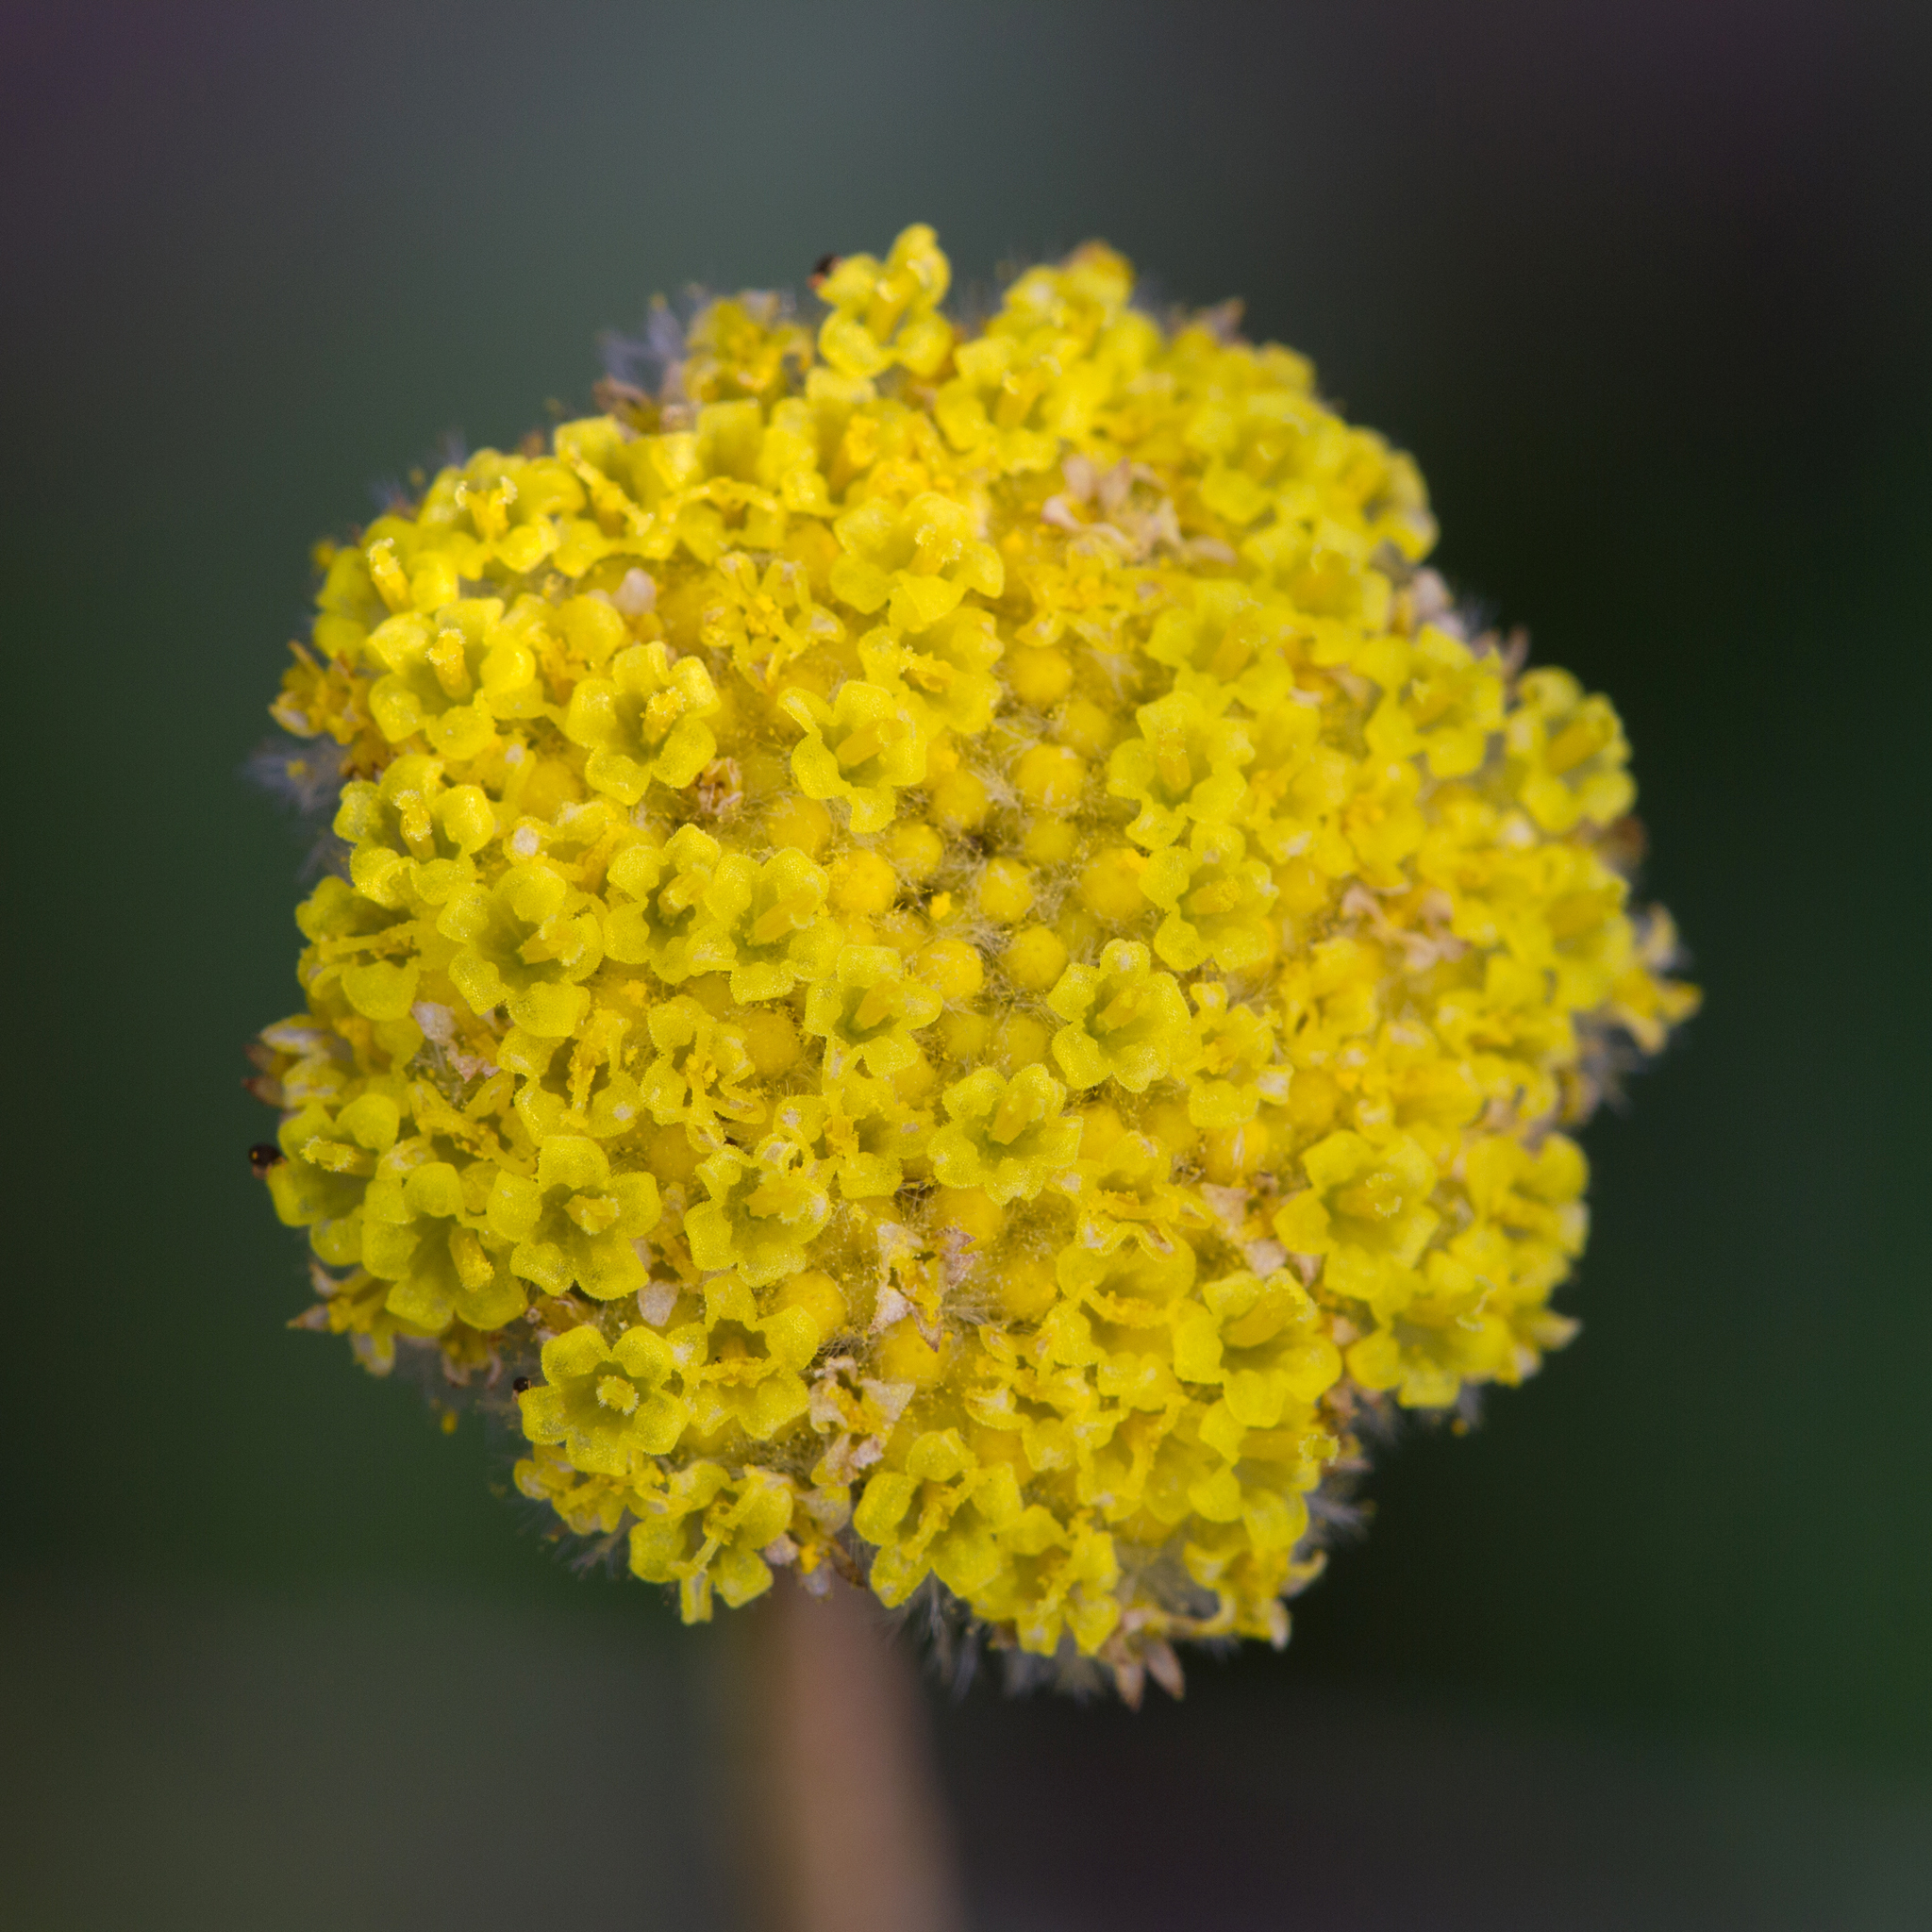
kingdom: Plantae
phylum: Tracheophyta
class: Magnoliopsida
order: Asterales
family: Asteraceae
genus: Craspedia
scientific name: Craspedia variabilis
